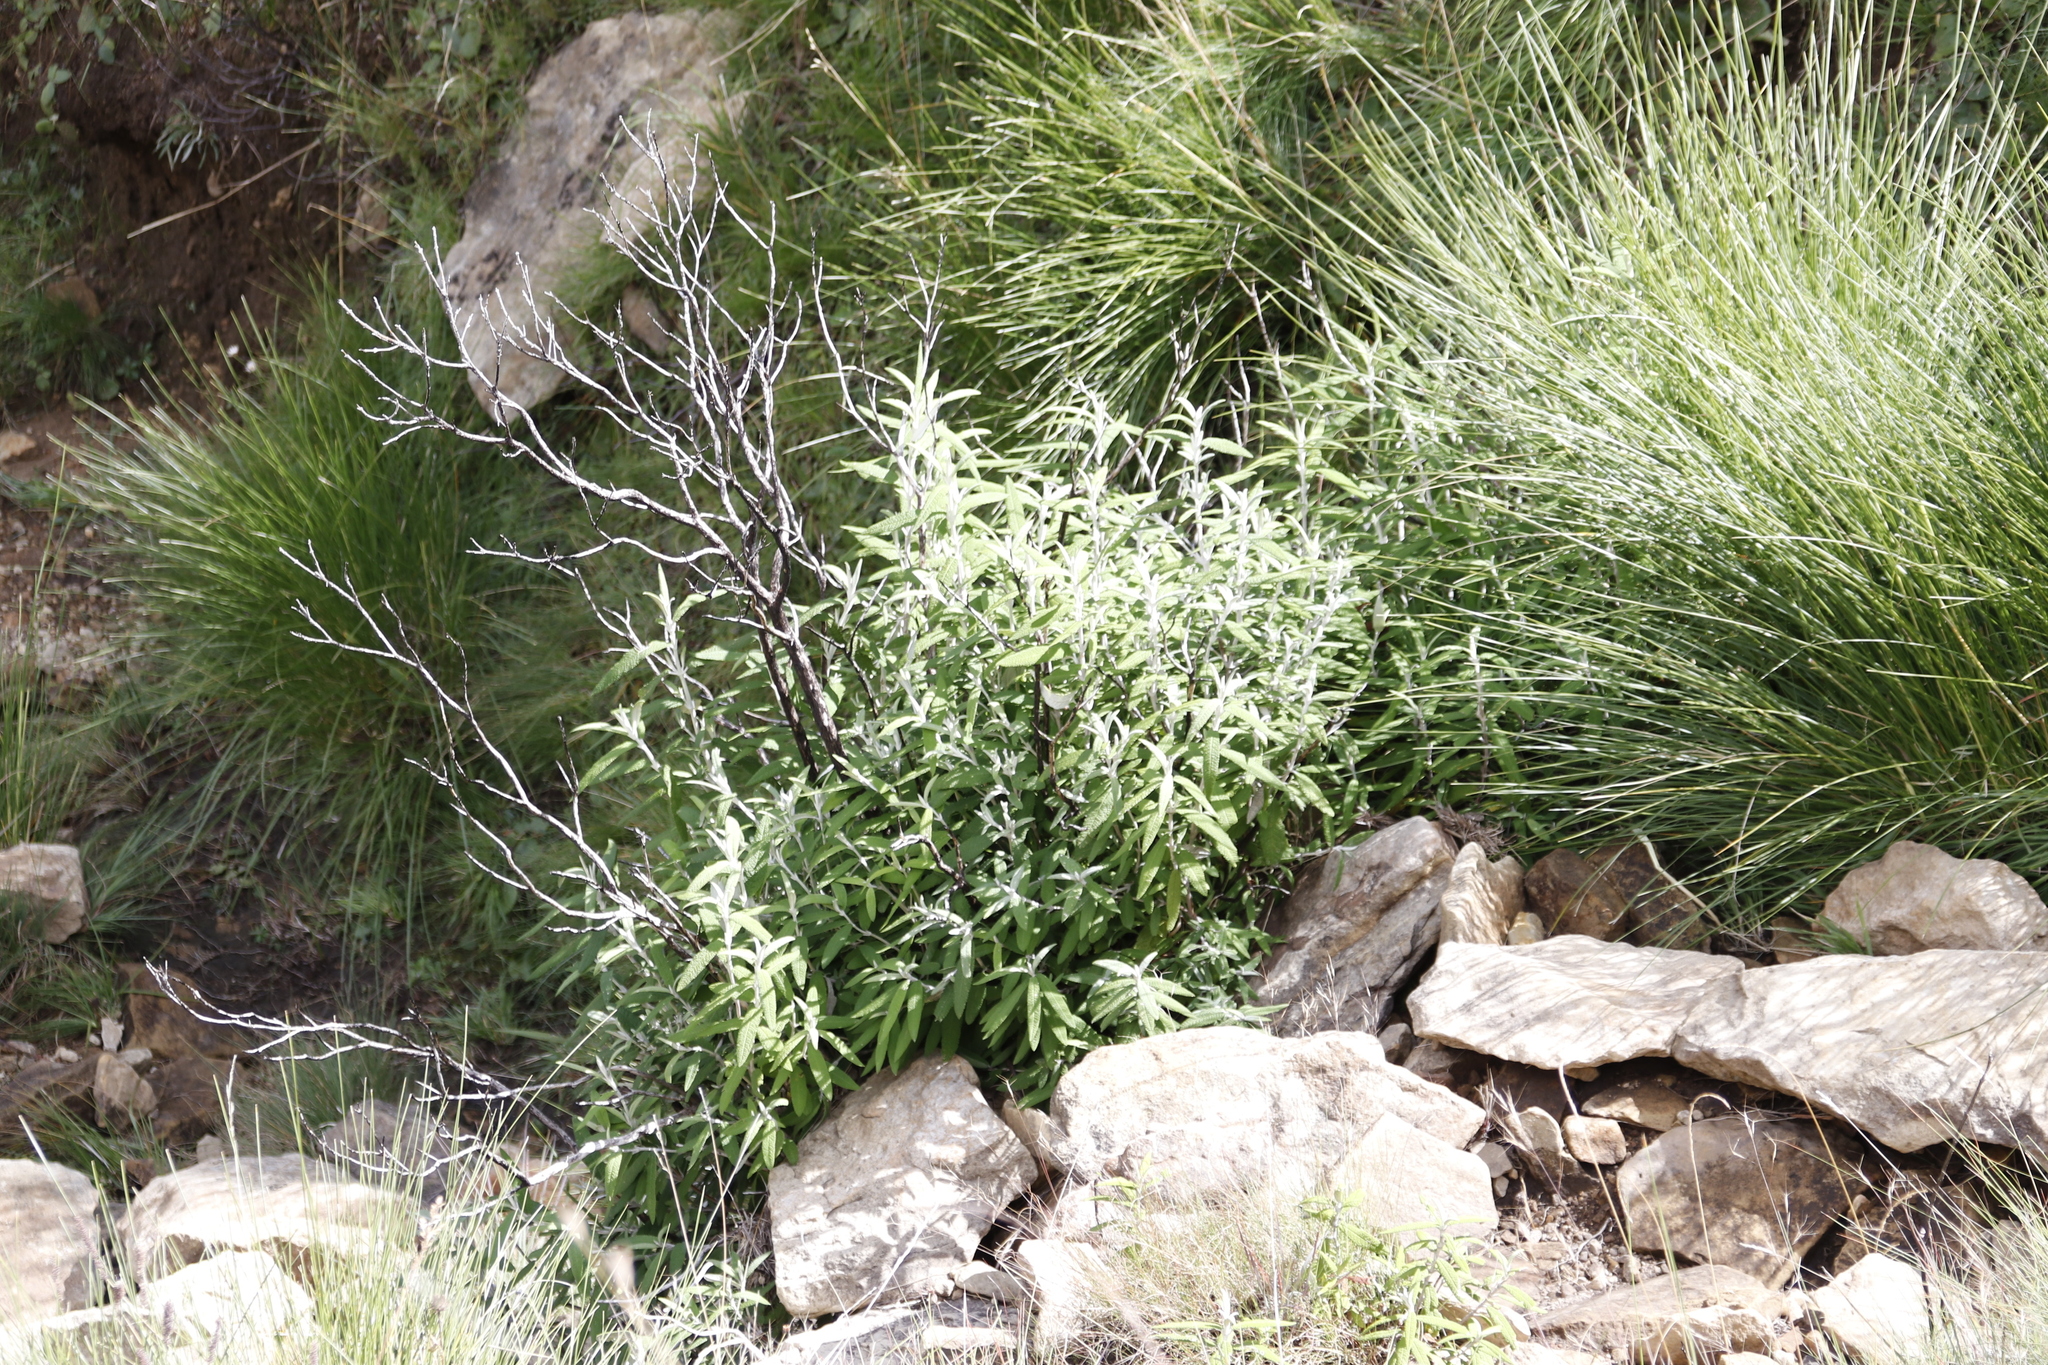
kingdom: Plantae
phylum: Tracheophyta
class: Magnoliopsida
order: Lamiales
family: Scrophulariaceae
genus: Buddleja
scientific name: Buddleja loricata
